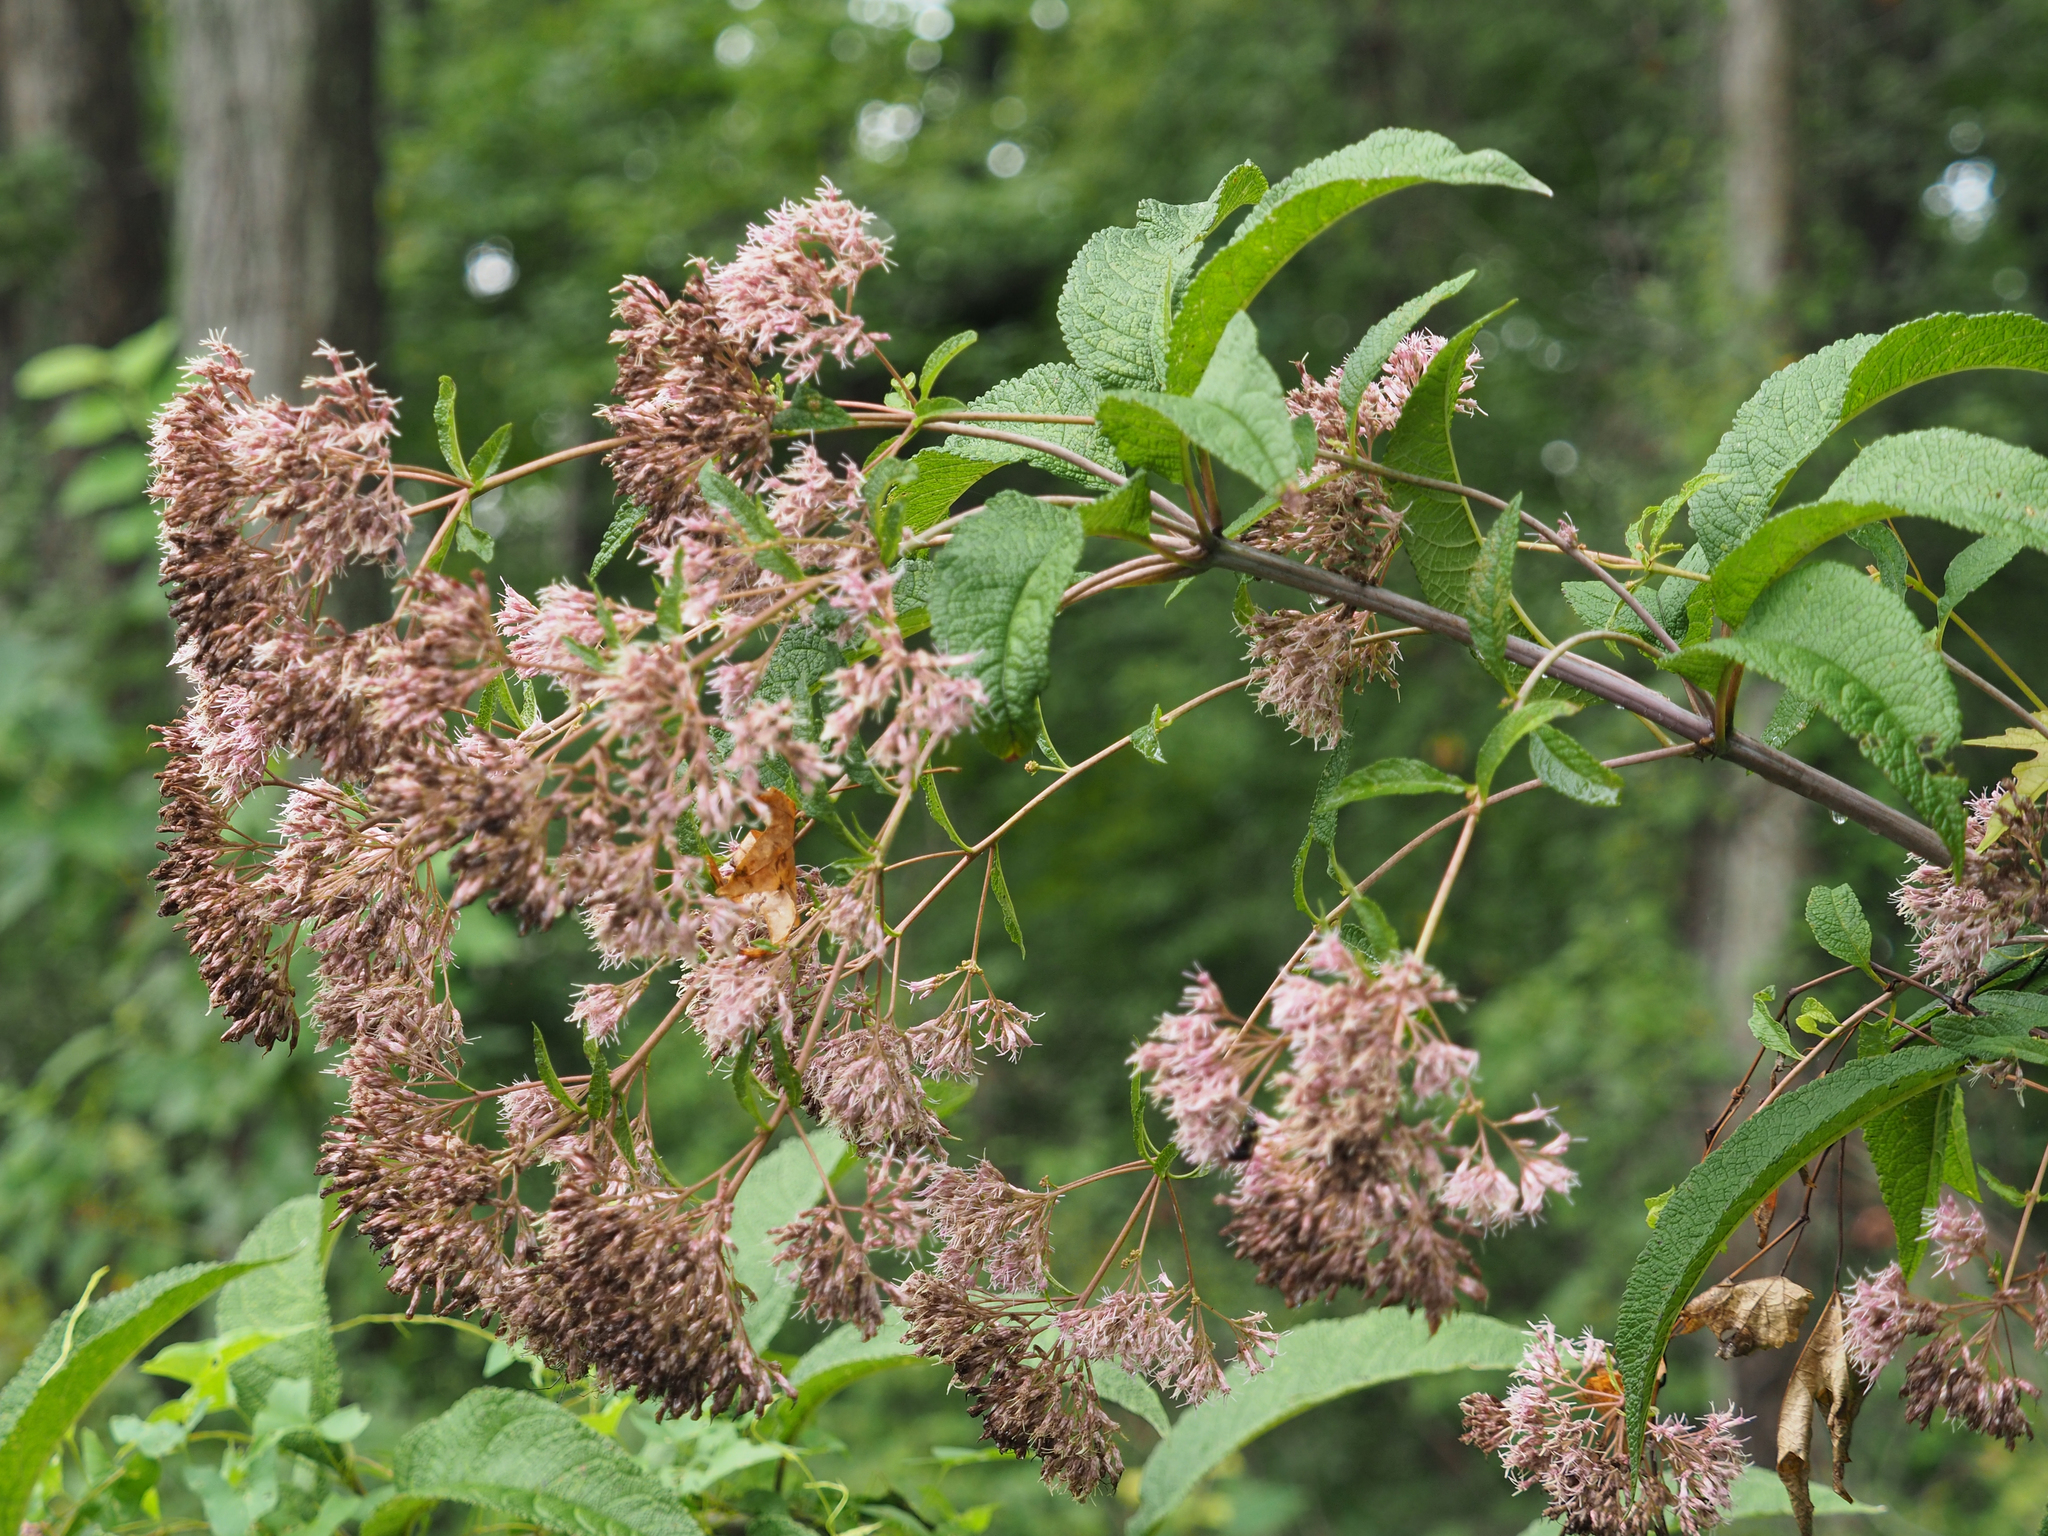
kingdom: Plantae
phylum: Tracheophyta
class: Magnoliopsida
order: Asterales
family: Asteraceae
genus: Eutrochium
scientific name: Eutrochium fistulosum
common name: Trumpetweed
